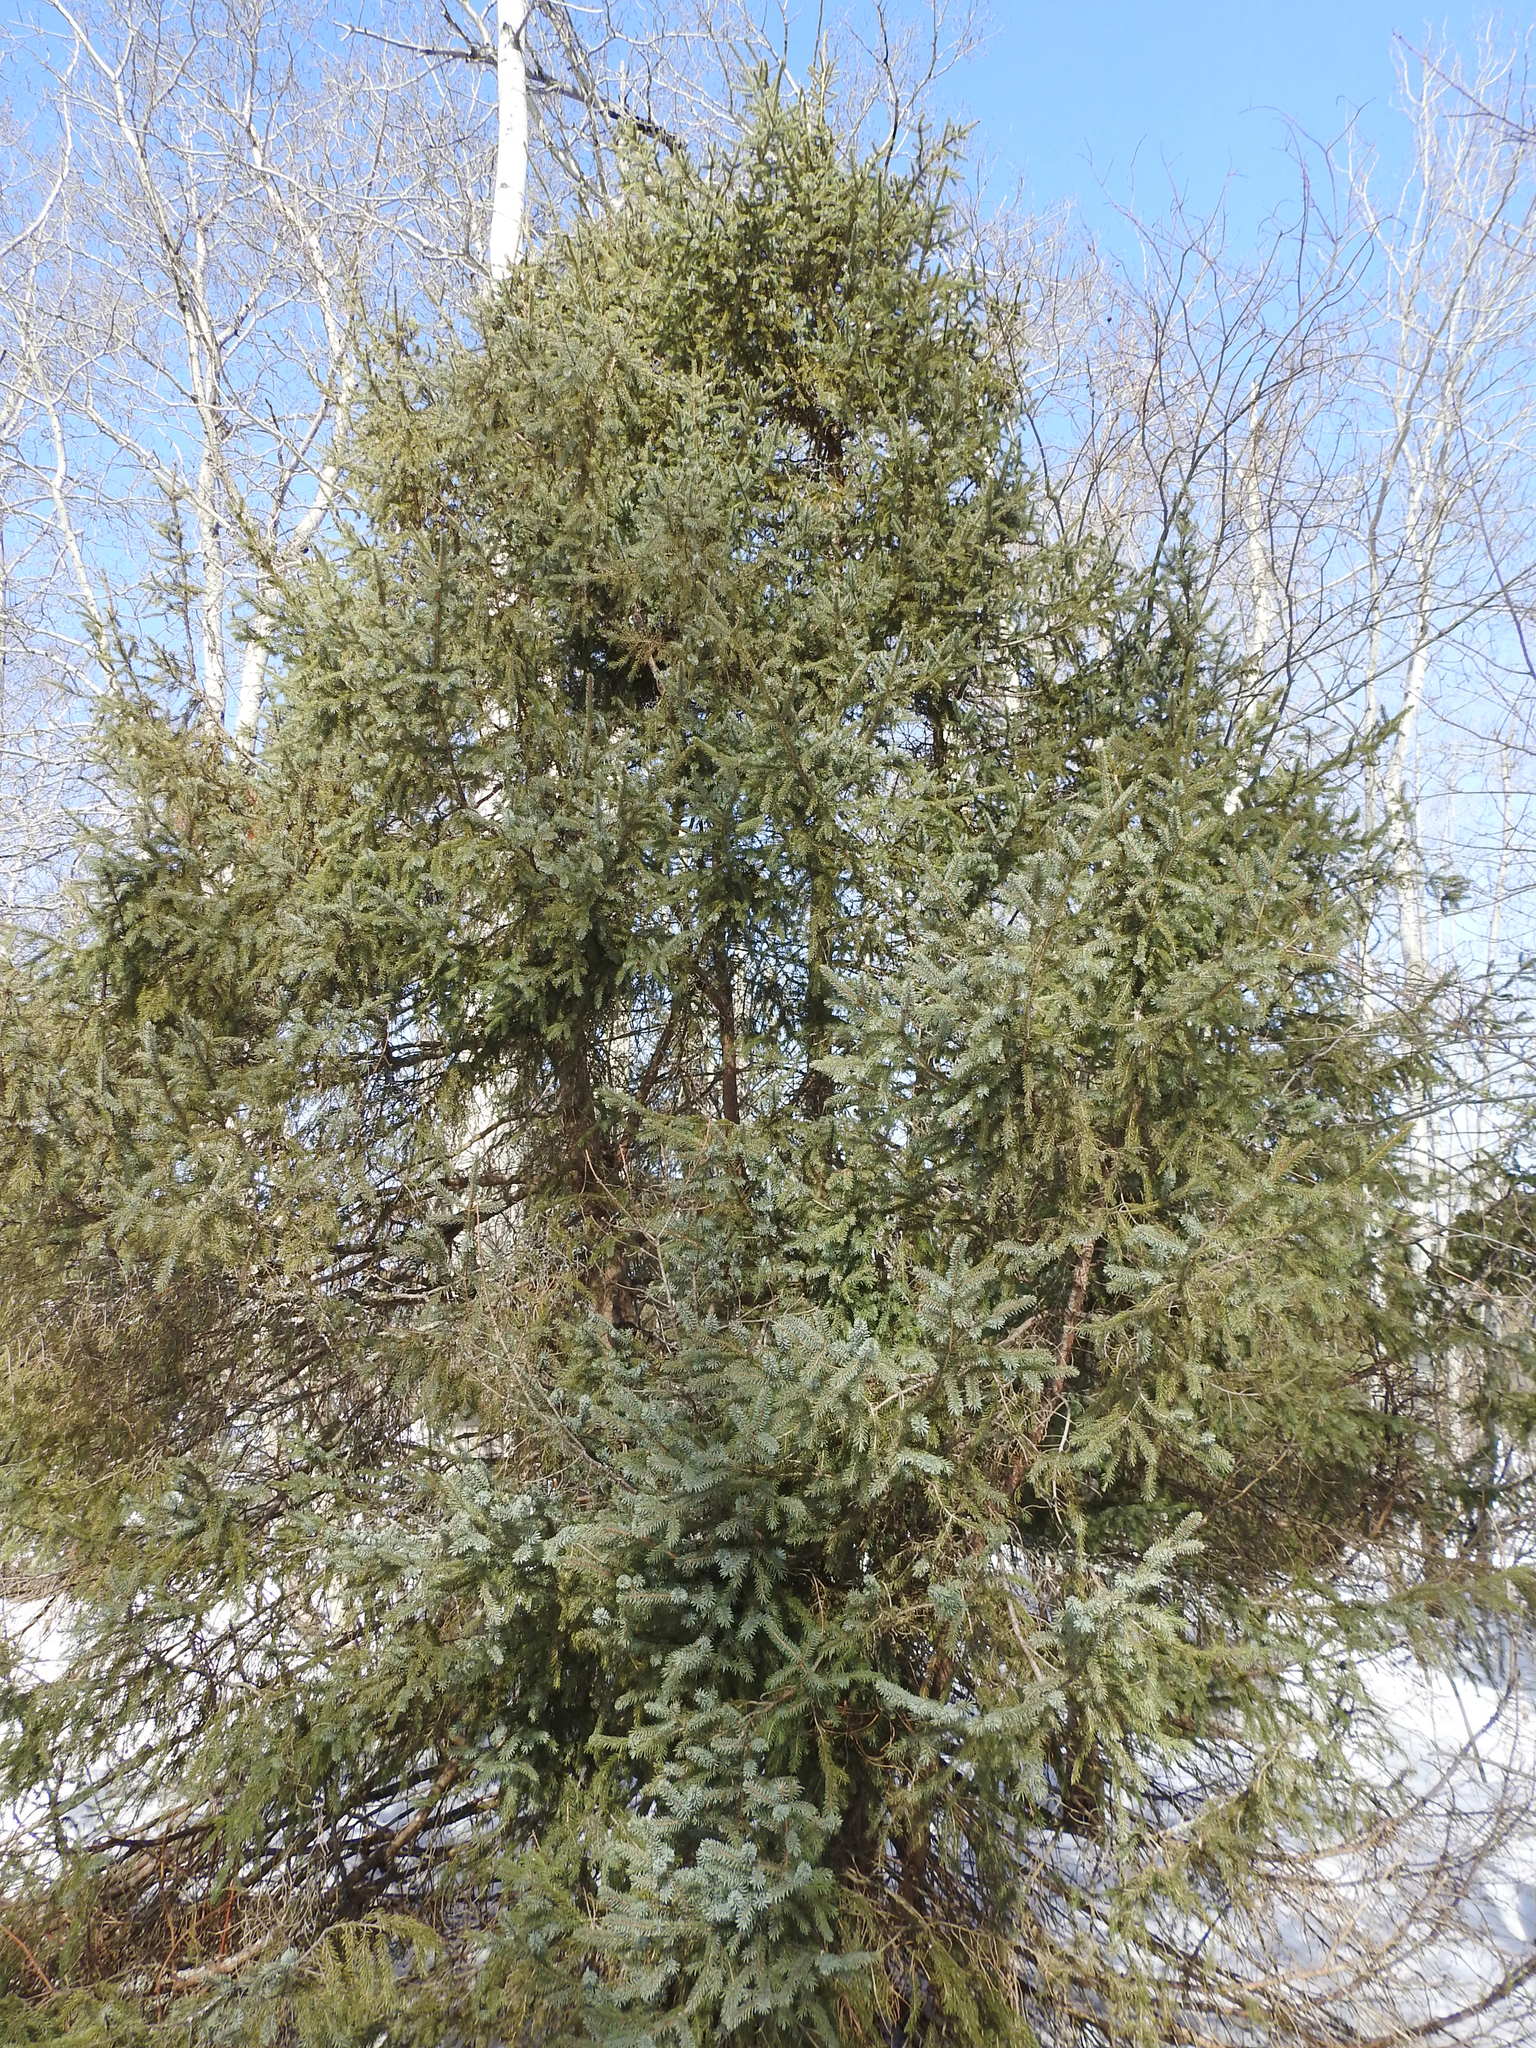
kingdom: Plantae
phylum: Tracheophyta
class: Pinopsida
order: Pinales
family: Pinaceae
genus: Picea
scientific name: Picea glauca
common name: White spruce
